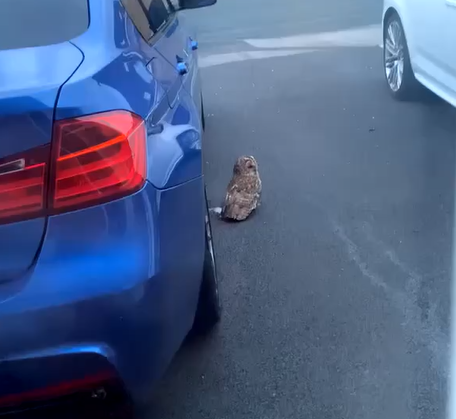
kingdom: Animalia
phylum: Chordata
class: Aves
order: Strigiformes
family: Strigidae
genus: Strix
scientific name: Strix aluco
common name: Tawny owl
